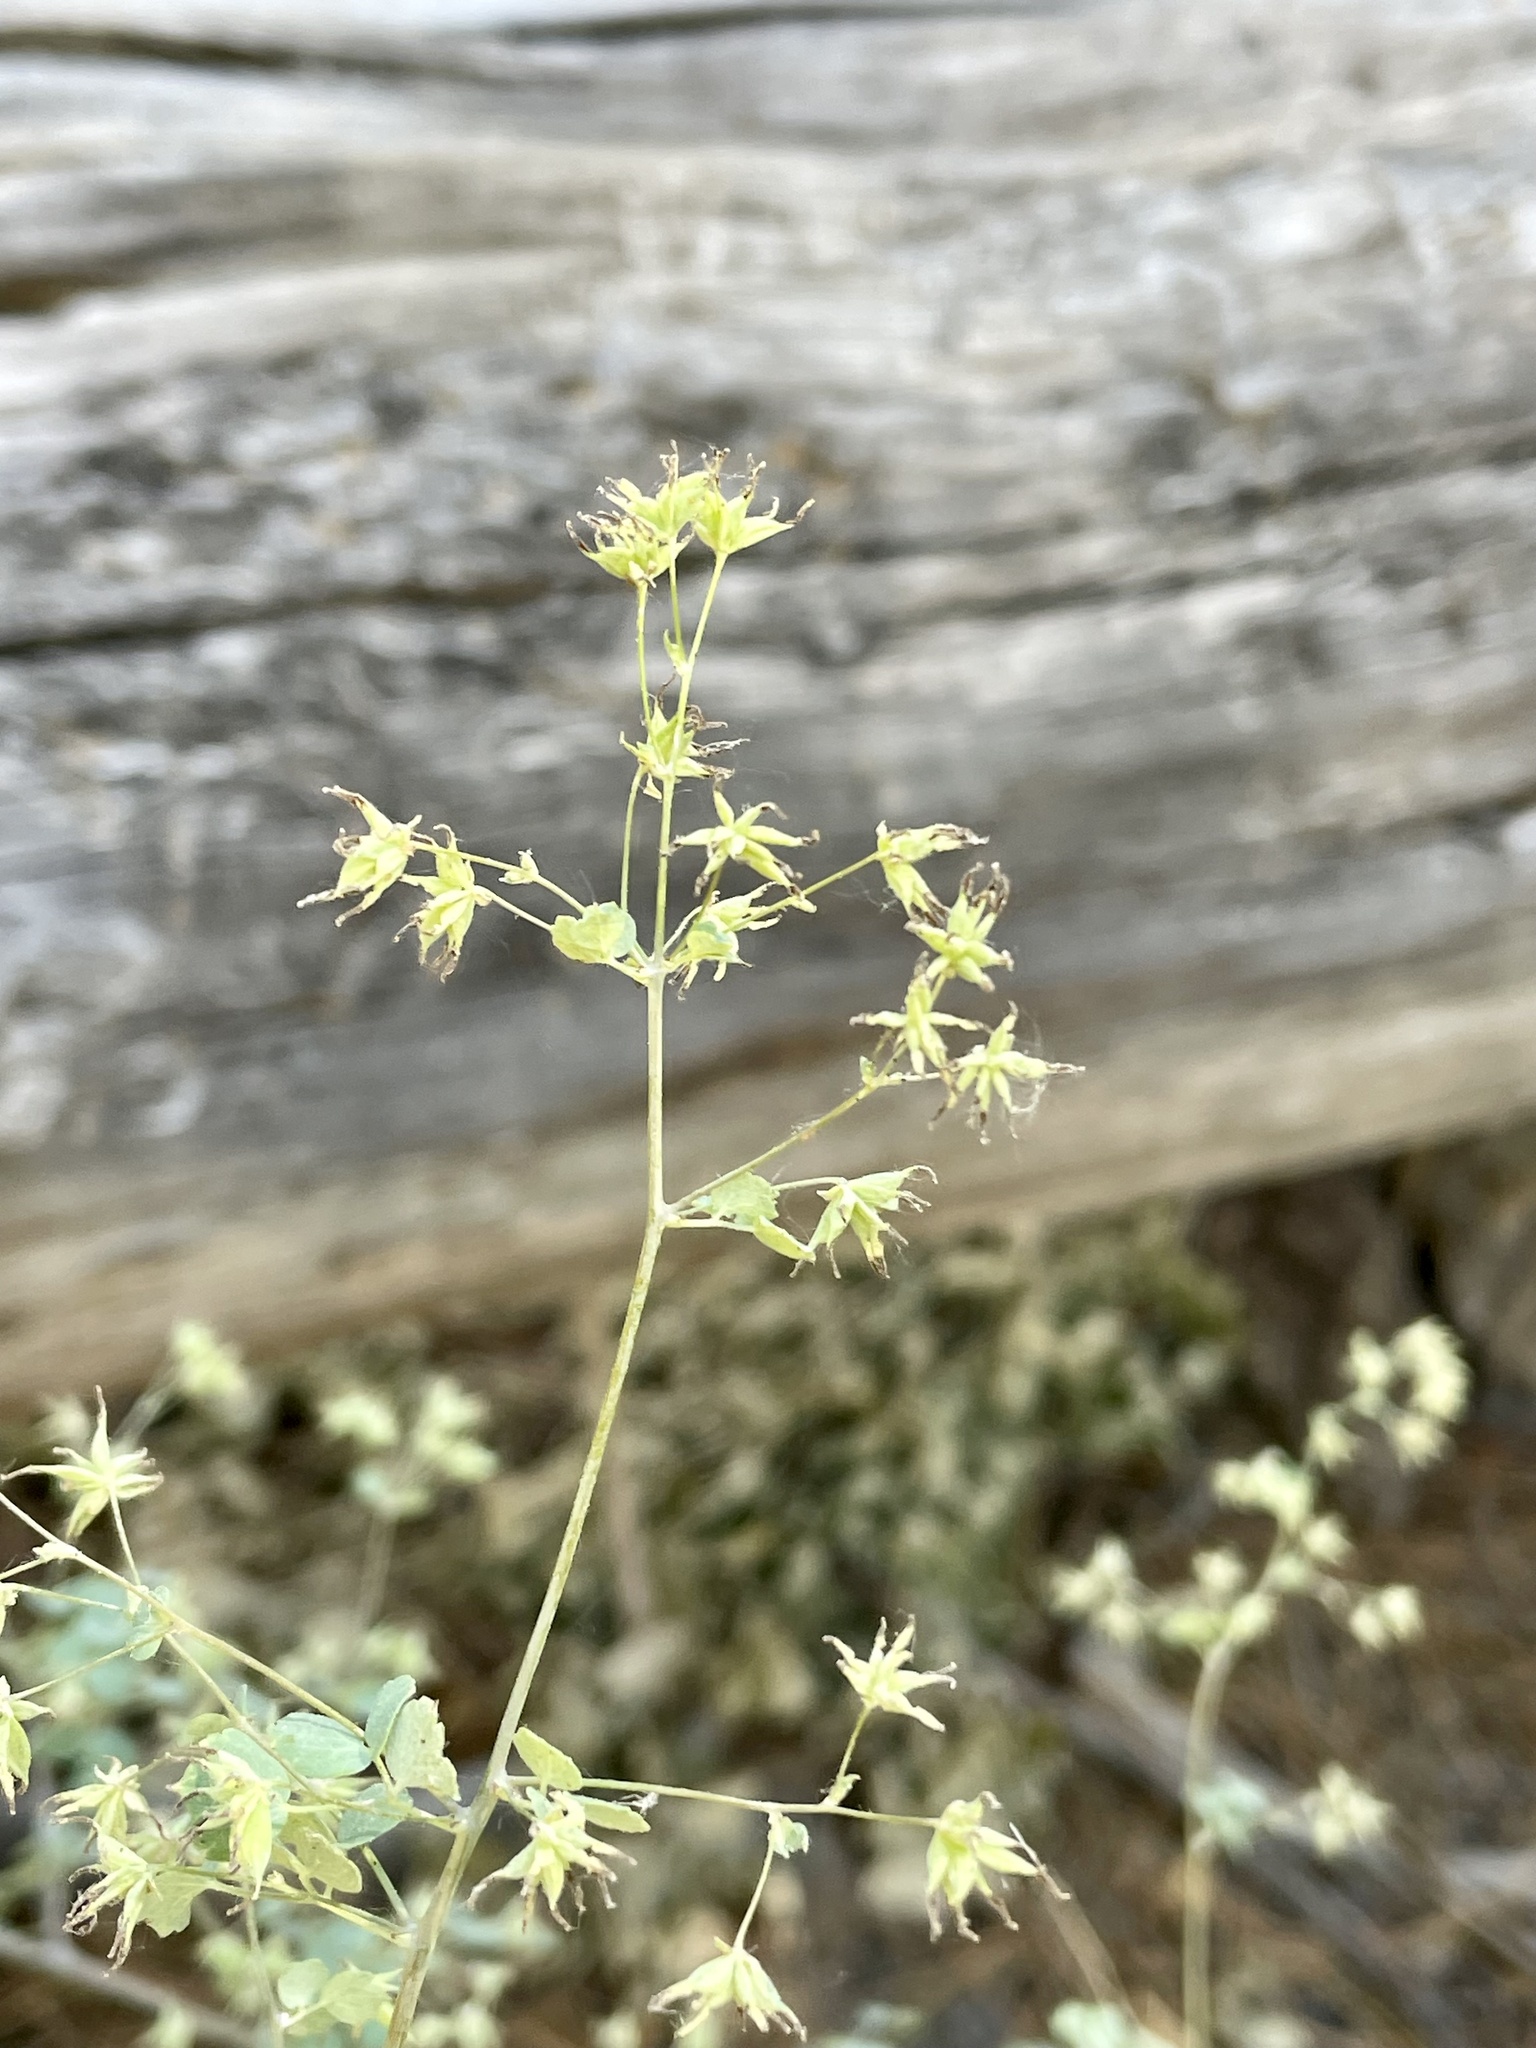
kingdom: Plantae
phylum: Tracheophyta
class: Magnoliopsida
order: Ranunculales
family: Ranunculaceae
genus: Thalictrum
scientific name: Thalictrum fendleri
